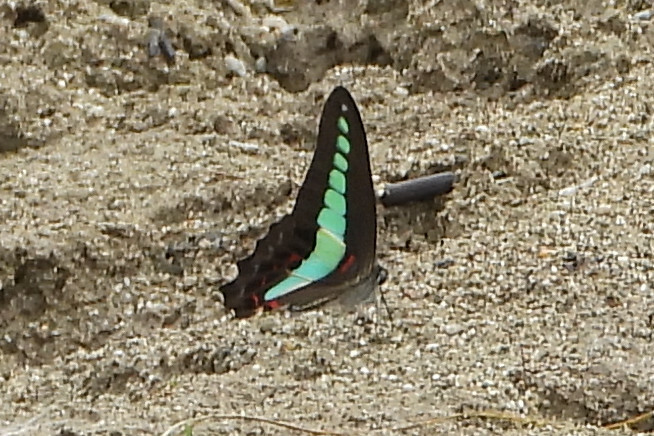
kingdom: Fungi
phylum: Ascomycota
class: Sordariomycetes
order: Microascales
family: Microascaceae
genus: Graphium
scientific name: Graphium sarpedon
